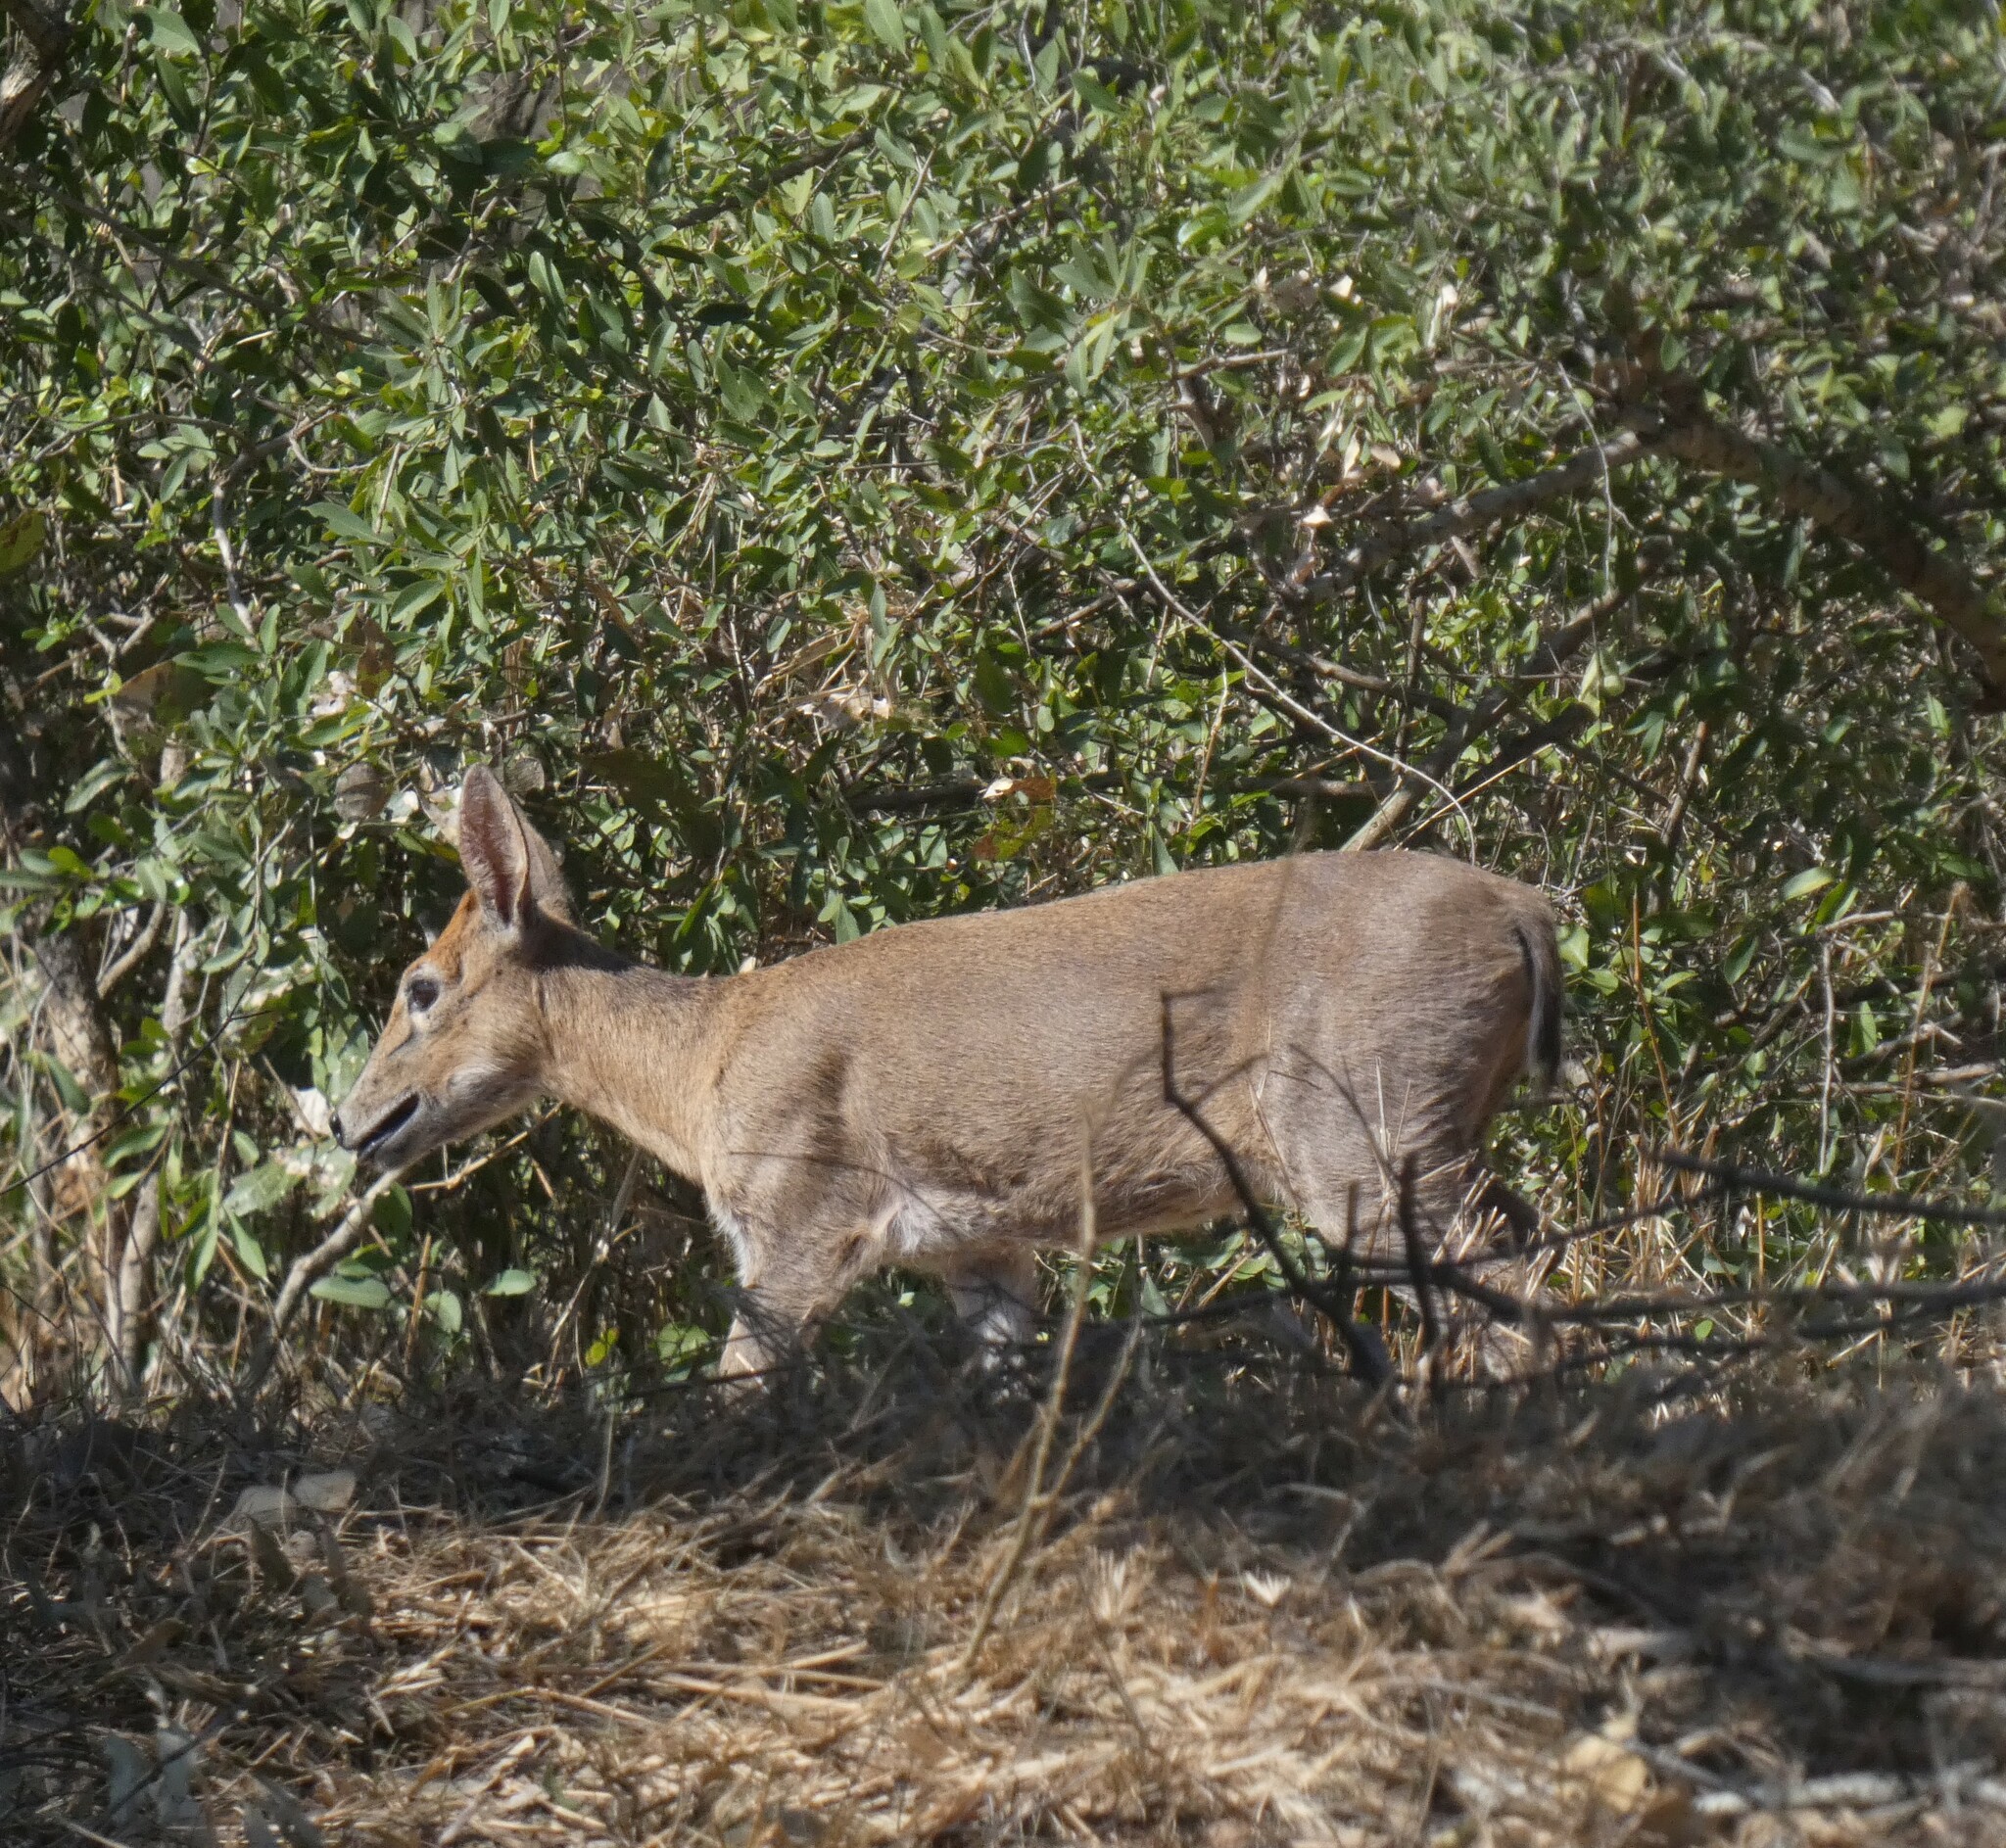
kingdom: Animalia
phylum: Chordata
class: Mammalia
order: Artiodactyla
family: Bovidae
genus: Sylvicapra
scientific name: Sylvicapra grimmia
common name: Bush duiker
